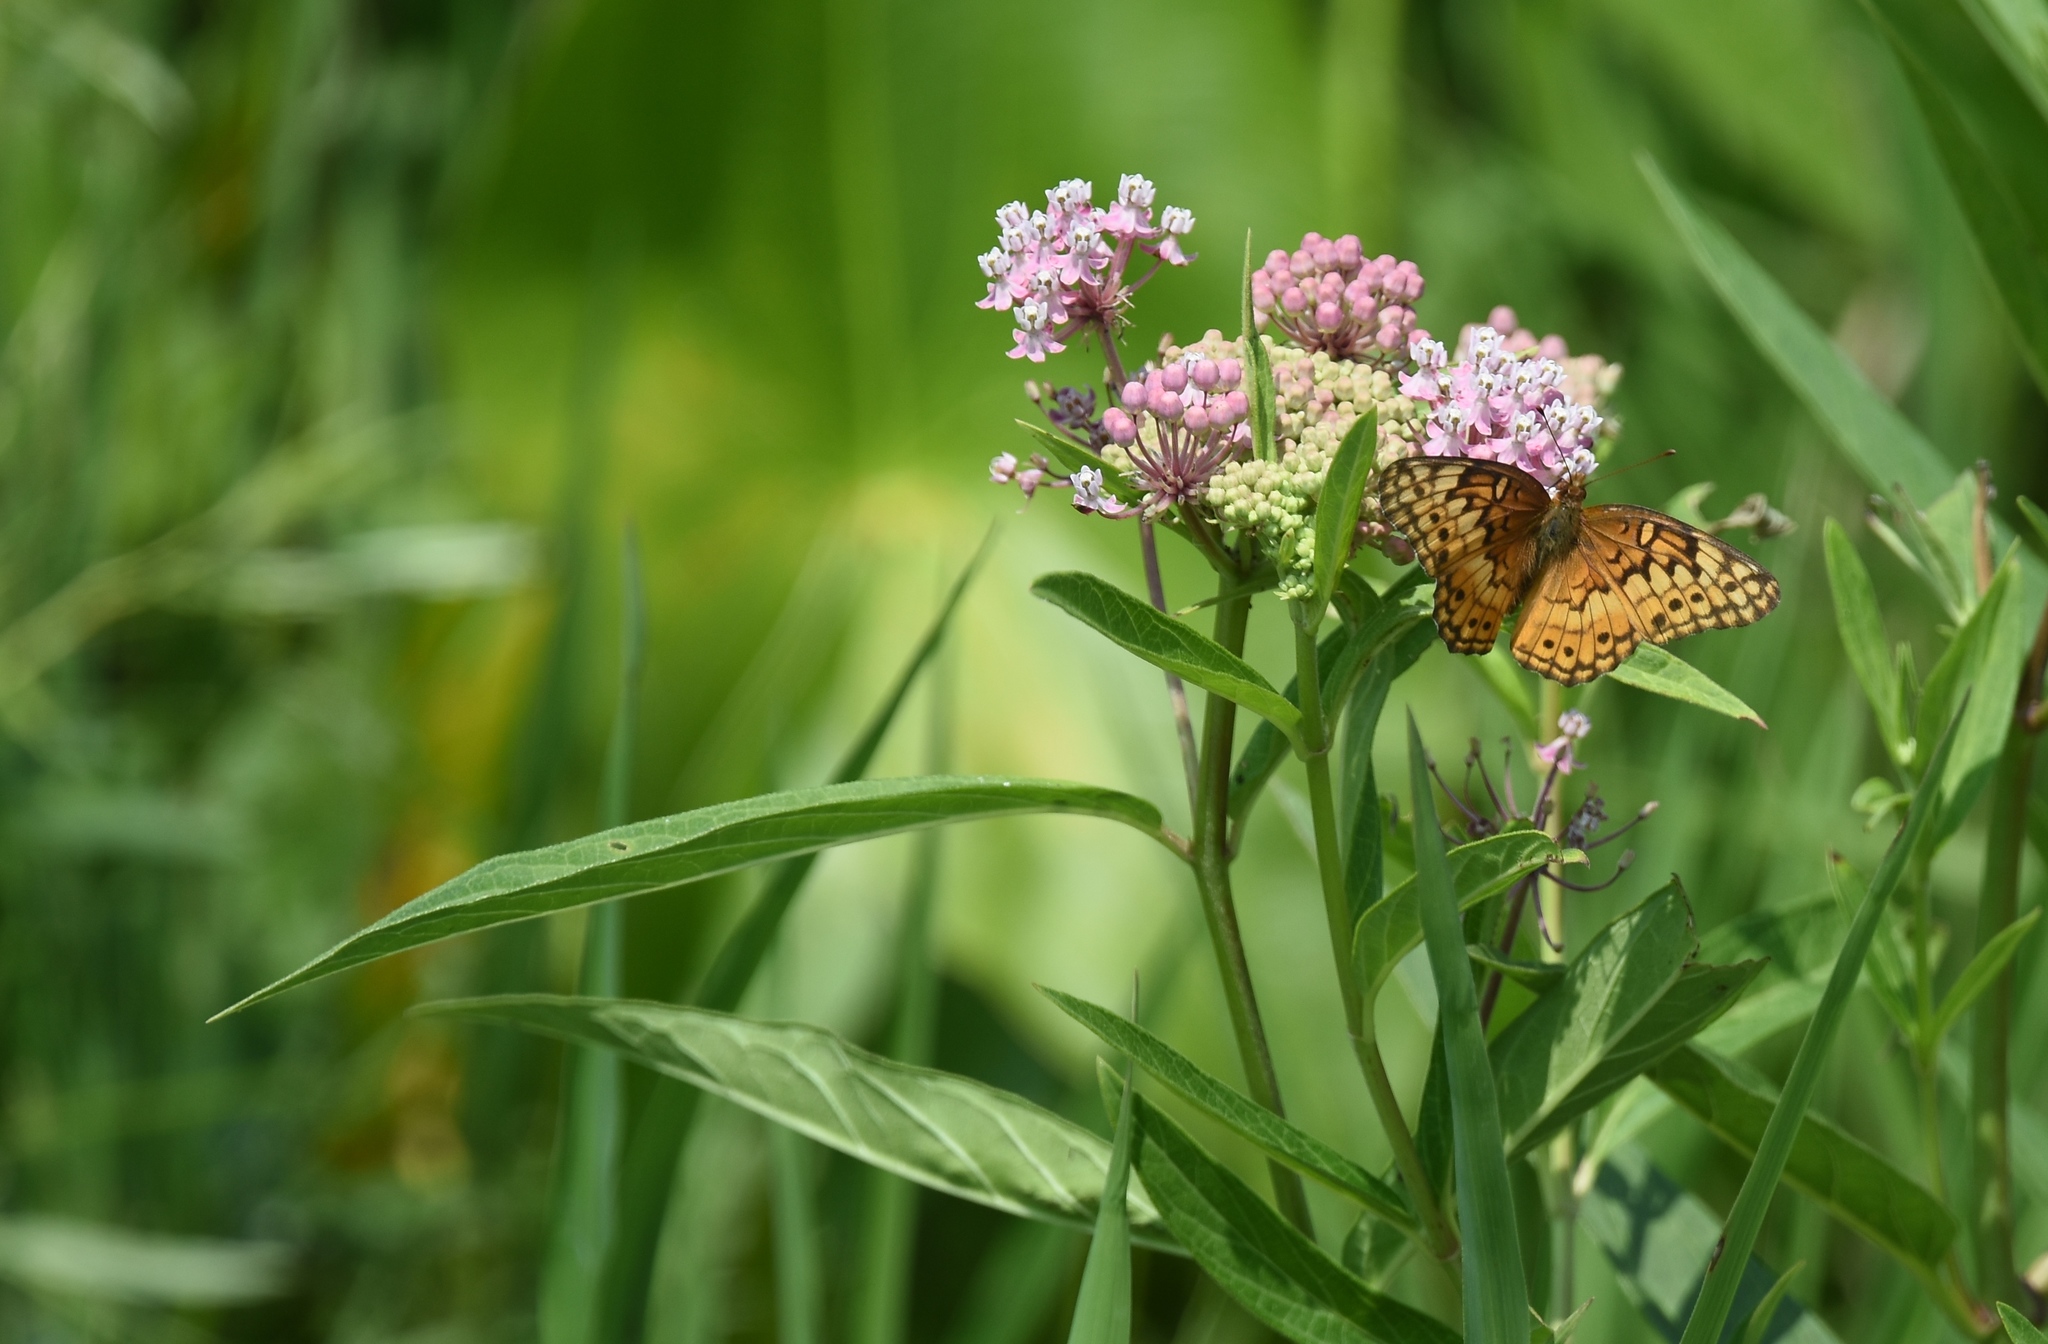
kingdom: Animalia
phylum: Arthropoda
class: Insecta
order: Lepidoptera
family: Nymphalidae
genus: Euptoieta
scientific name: Euptoieta claudia
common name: Variegated fritillary
